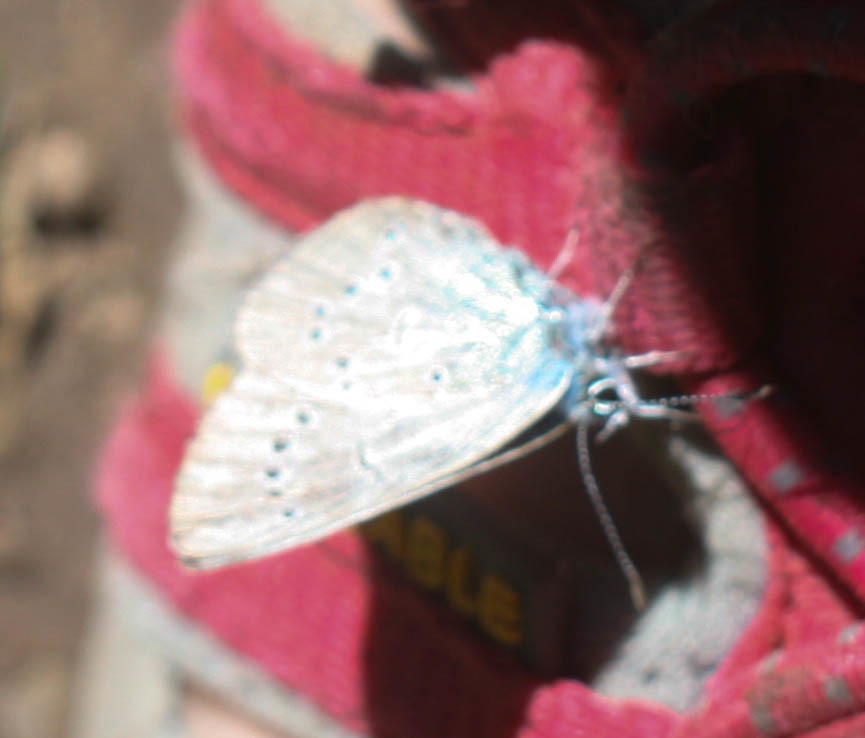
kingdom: Animalia
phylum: Arthropoda
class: Insecta
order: Lepidoptera
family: Lycaenidae
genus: Glaucopsyche
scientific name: Glaucopsyche lygdamus
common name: Silvery blue
